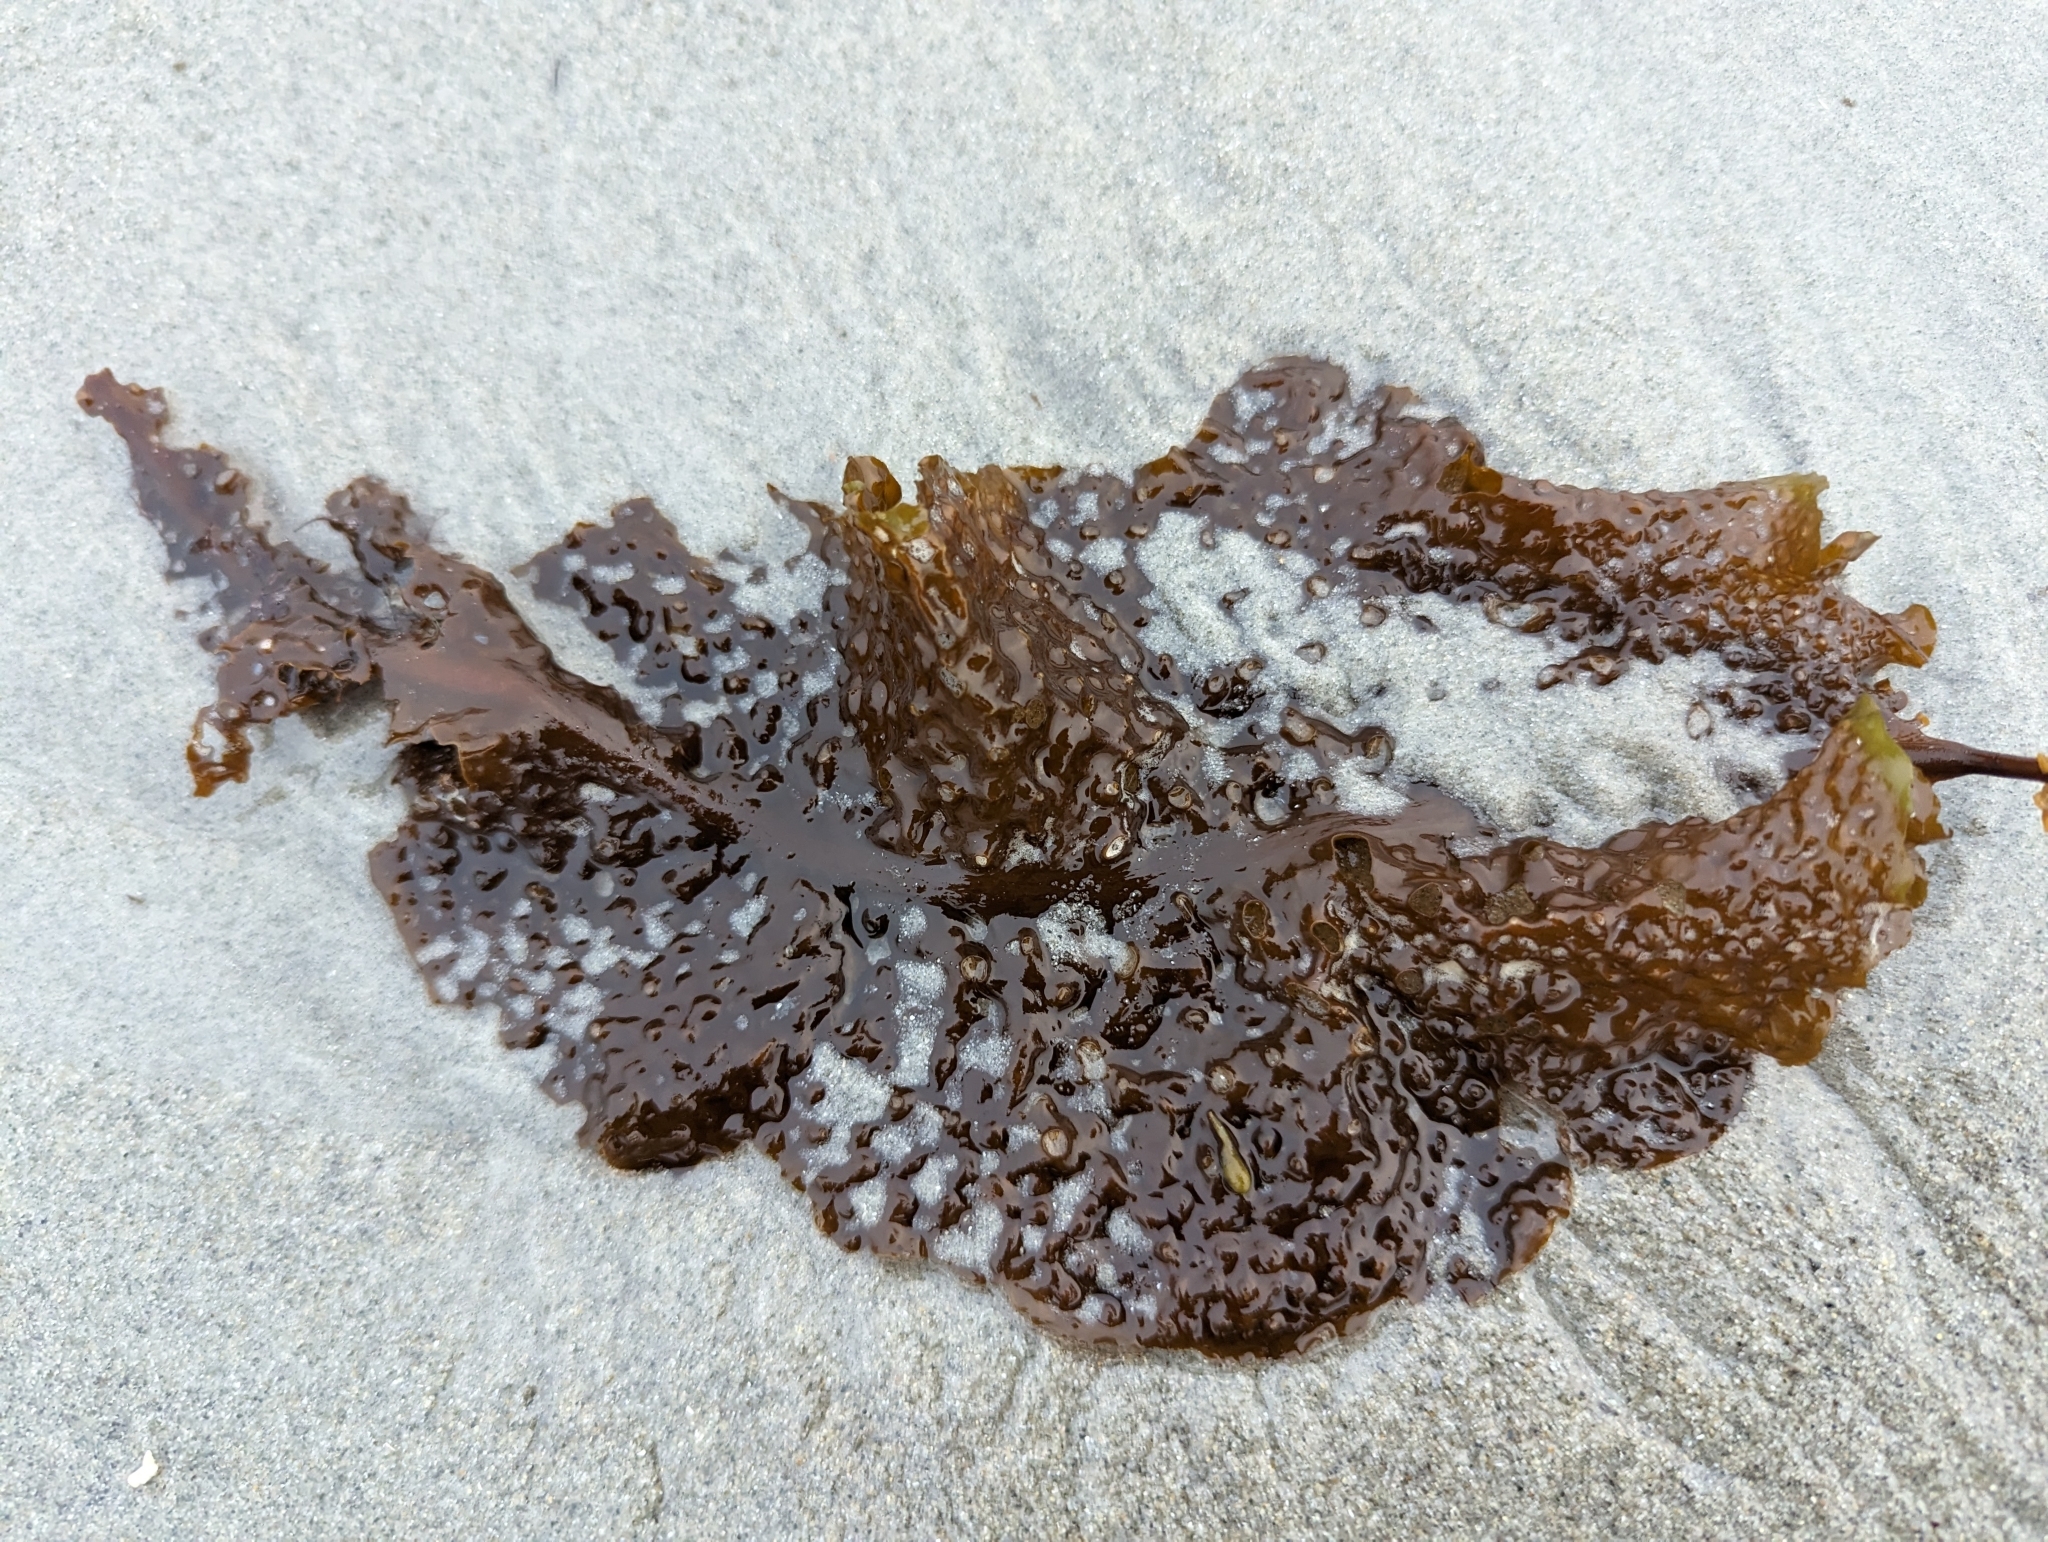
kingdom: Chromista
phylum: Ochrophyta
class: Phaeophyceae
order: Laminariales
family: Costariaceae
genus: Agarum
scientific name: Agarum clathratum
